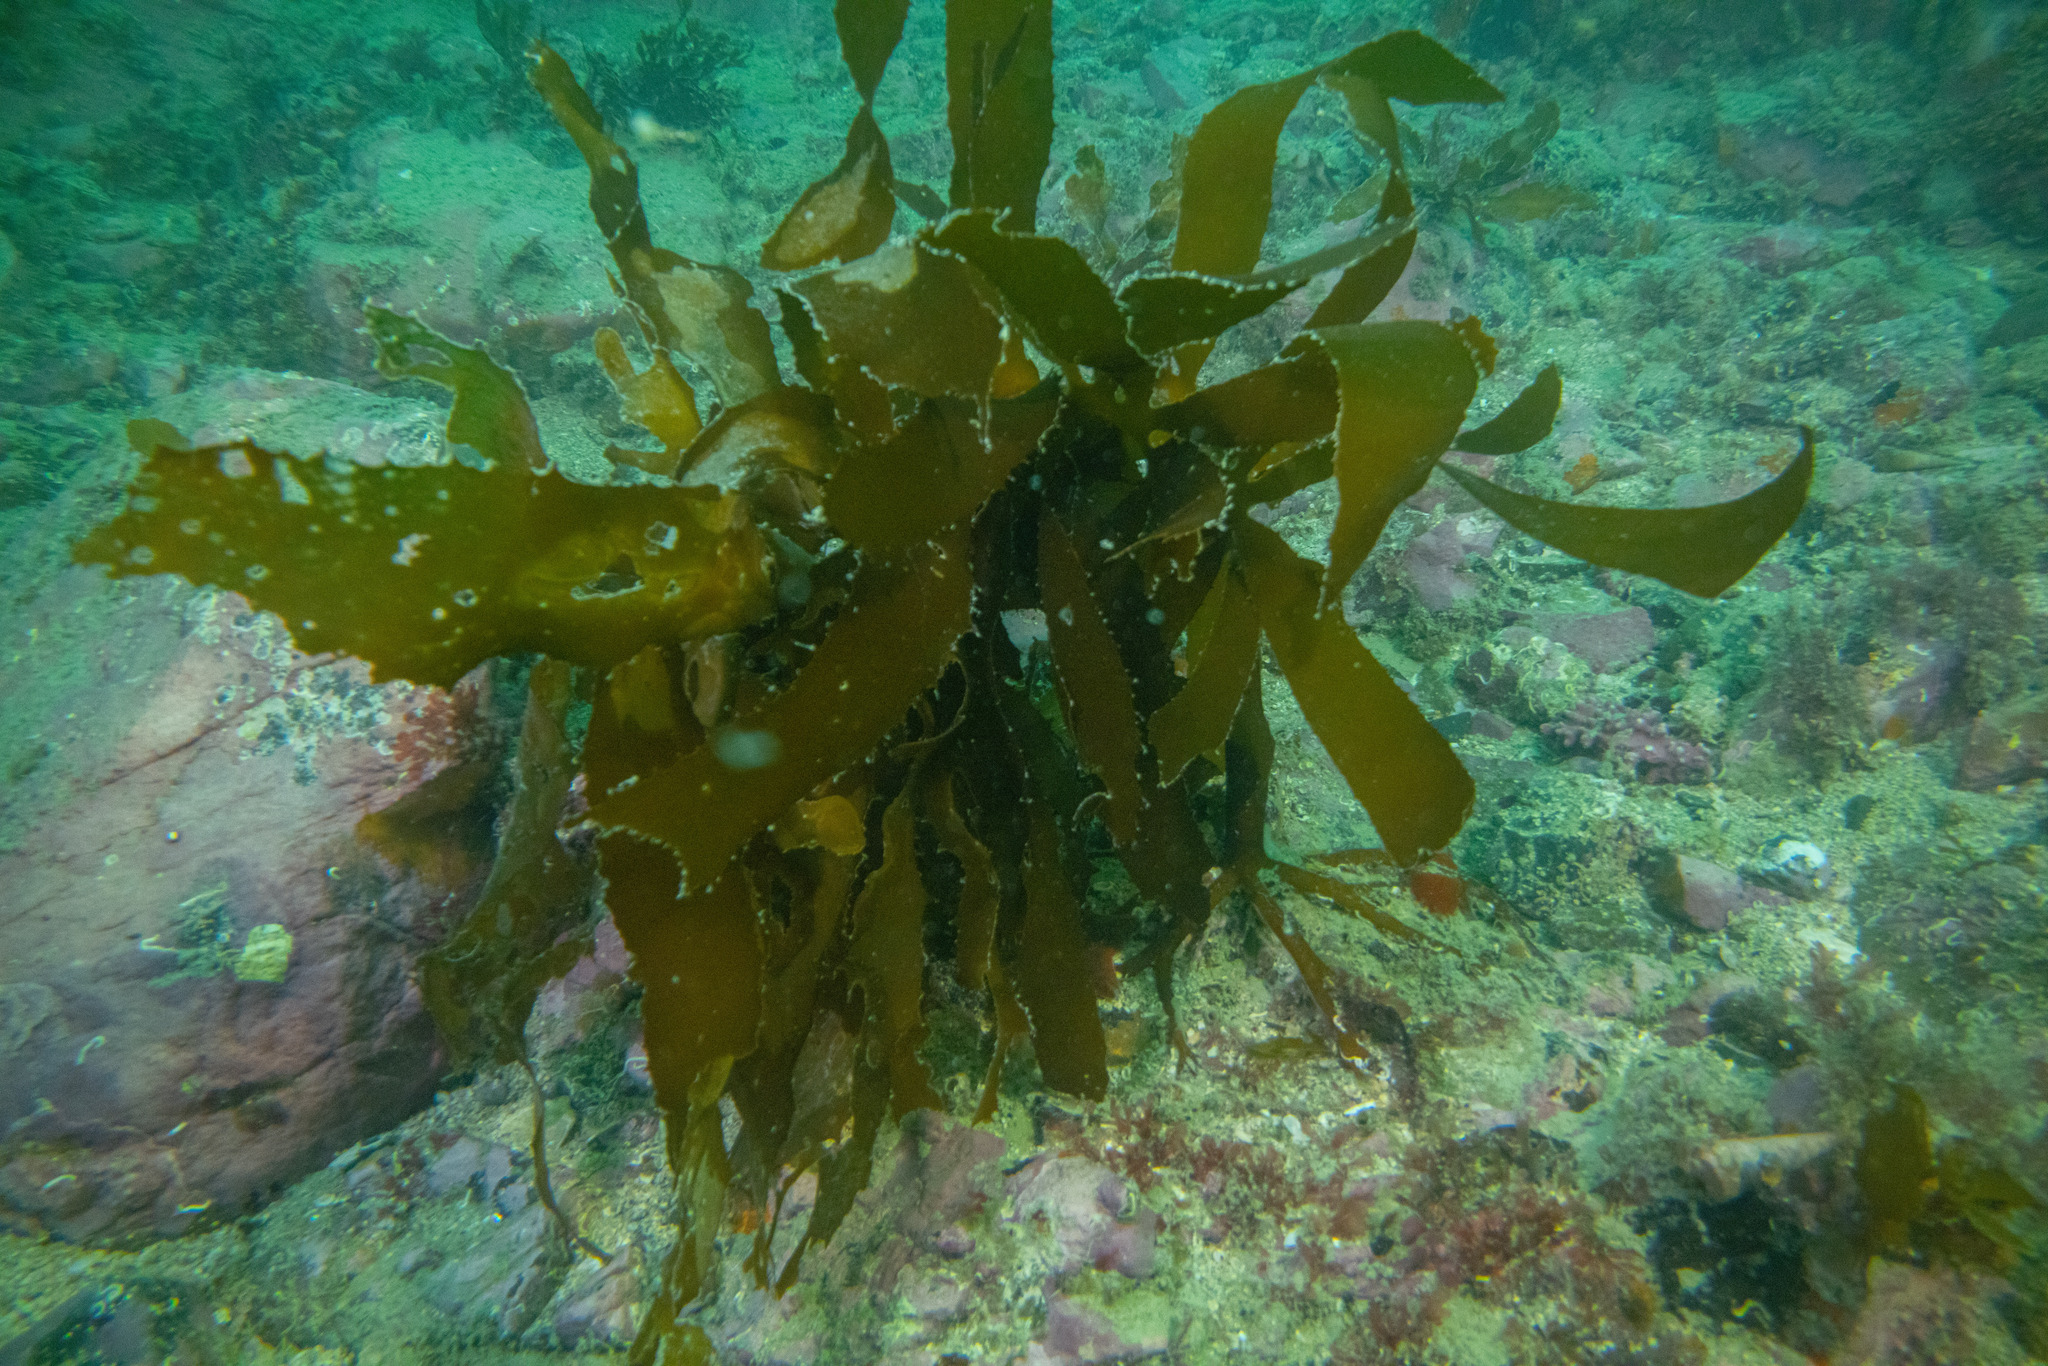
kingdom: Chromista
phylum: Ochrophyta
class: Phaeophyceae
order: Laminariales
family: Lessoniaceae
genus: Ecklonia
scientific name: Ecklonia radiata
